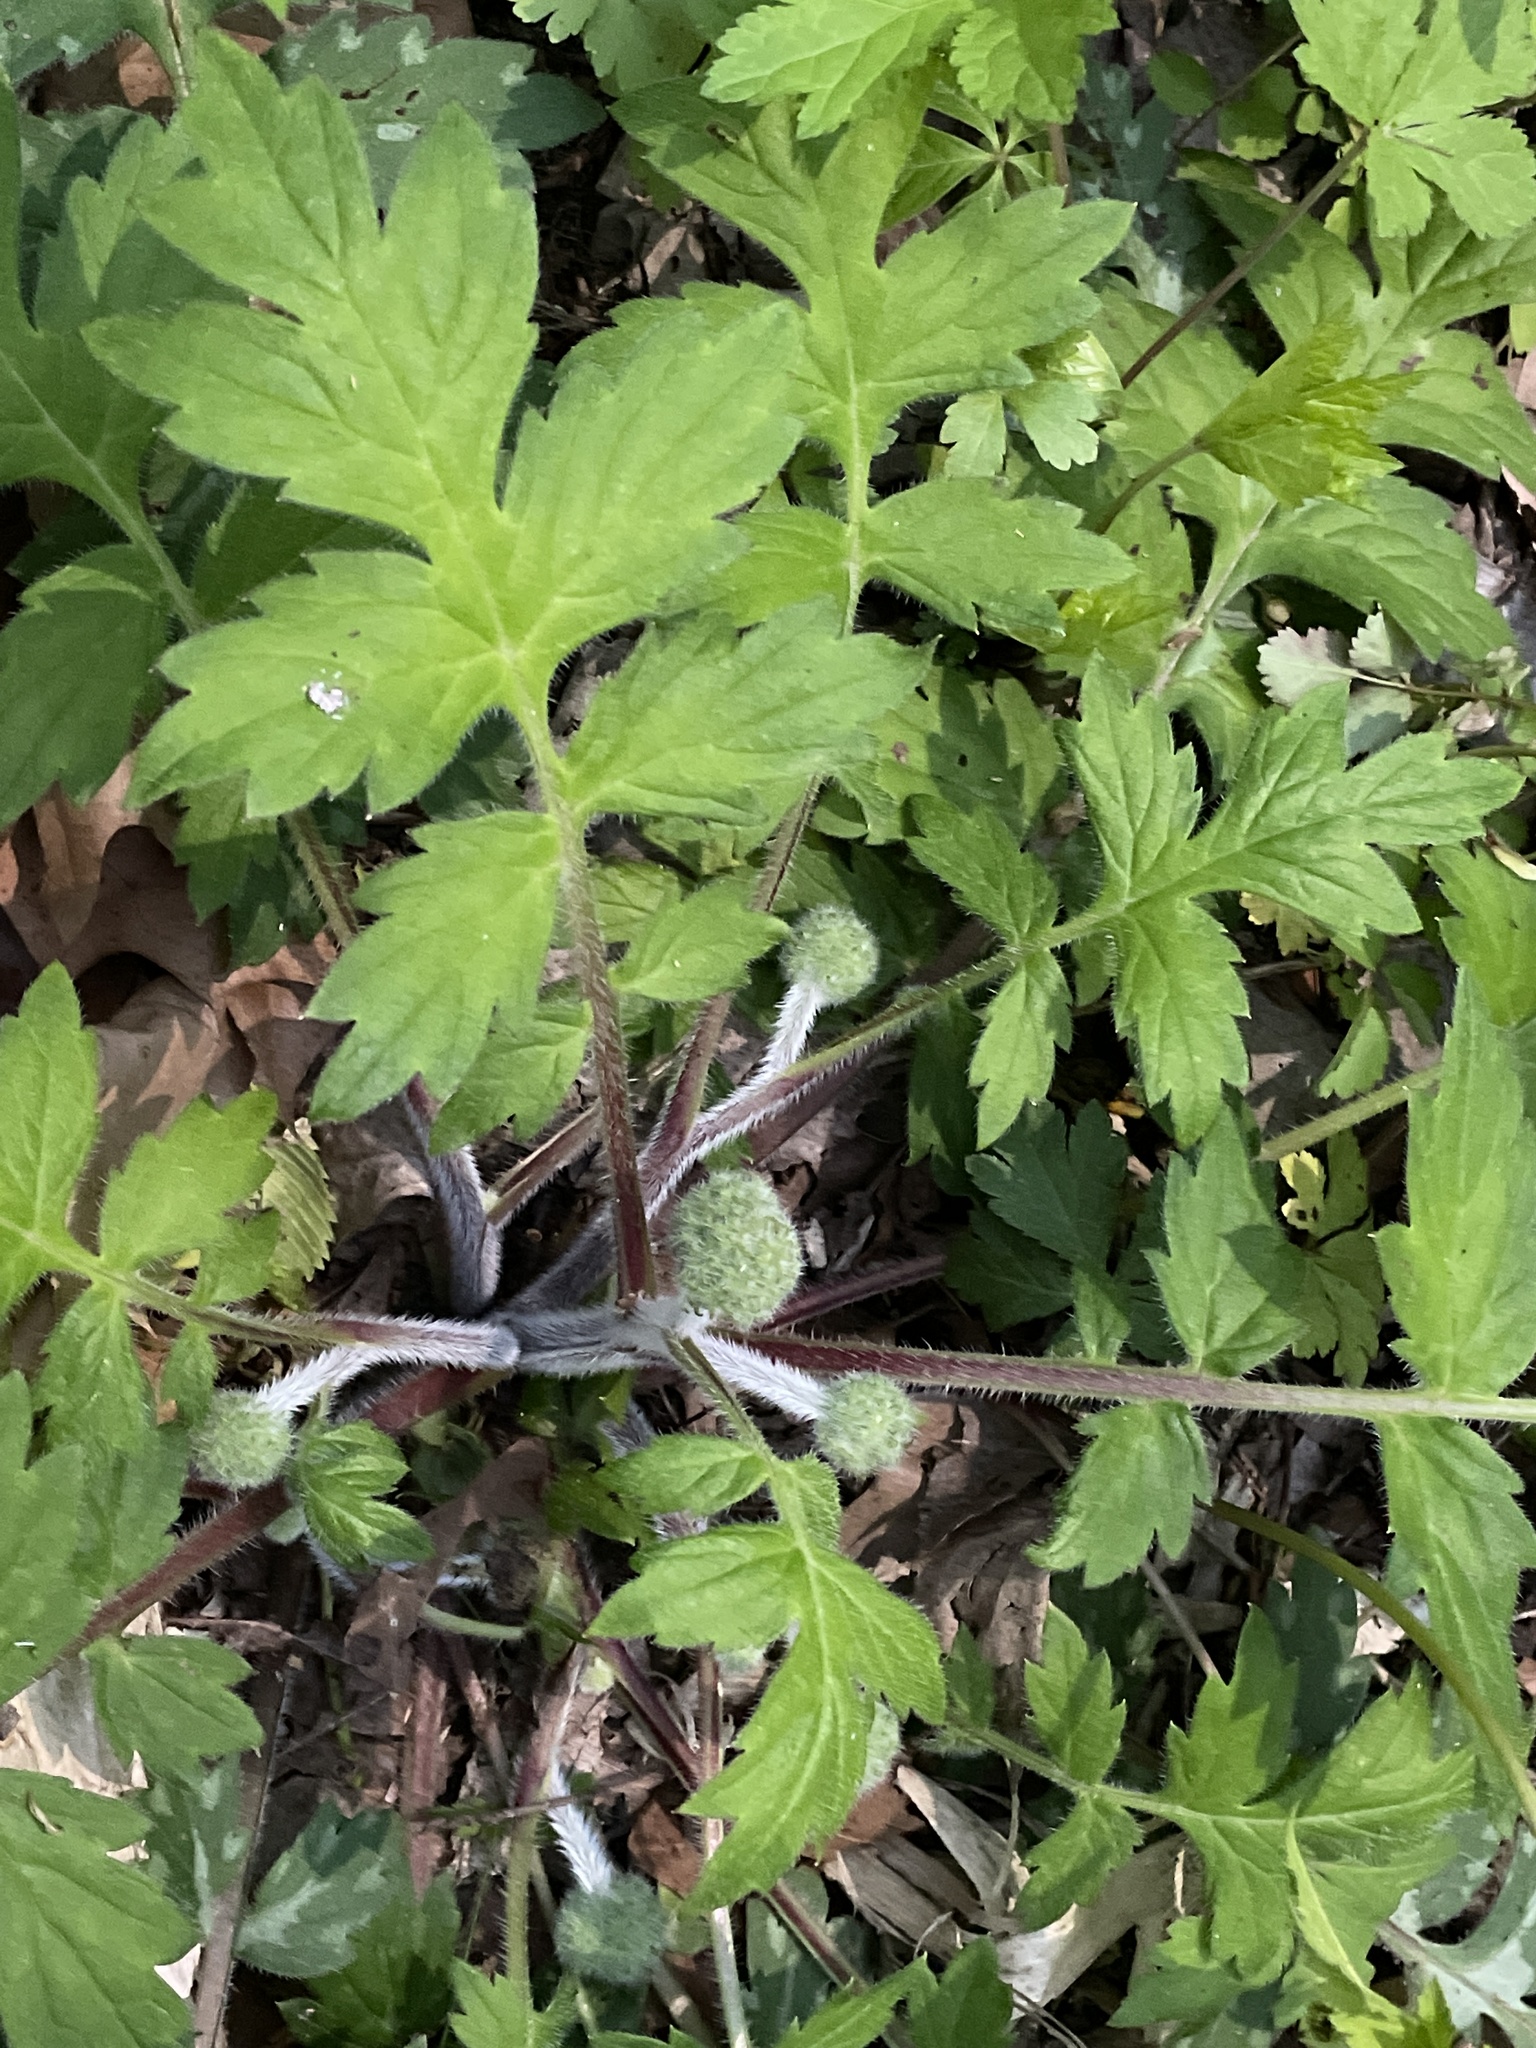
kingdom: Plantae
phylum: Tracheophyta
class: Magnoliopsida
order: Boraginales
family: Hydrophyllaceae
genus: Hydrophyllum
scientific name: Hydrophyllum macrophyllum
